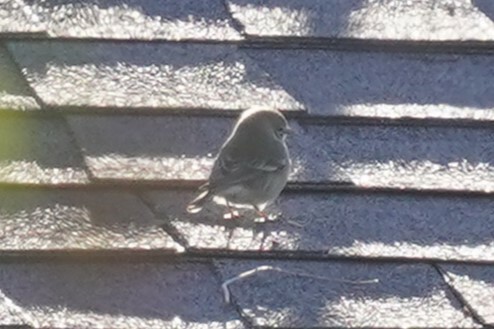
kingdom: Animalia
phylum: Chordata
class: Aves
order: Passeriformes
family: Parulidae
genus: Setophaga
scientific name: Setophaga coronata
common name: Myrtle warbler
